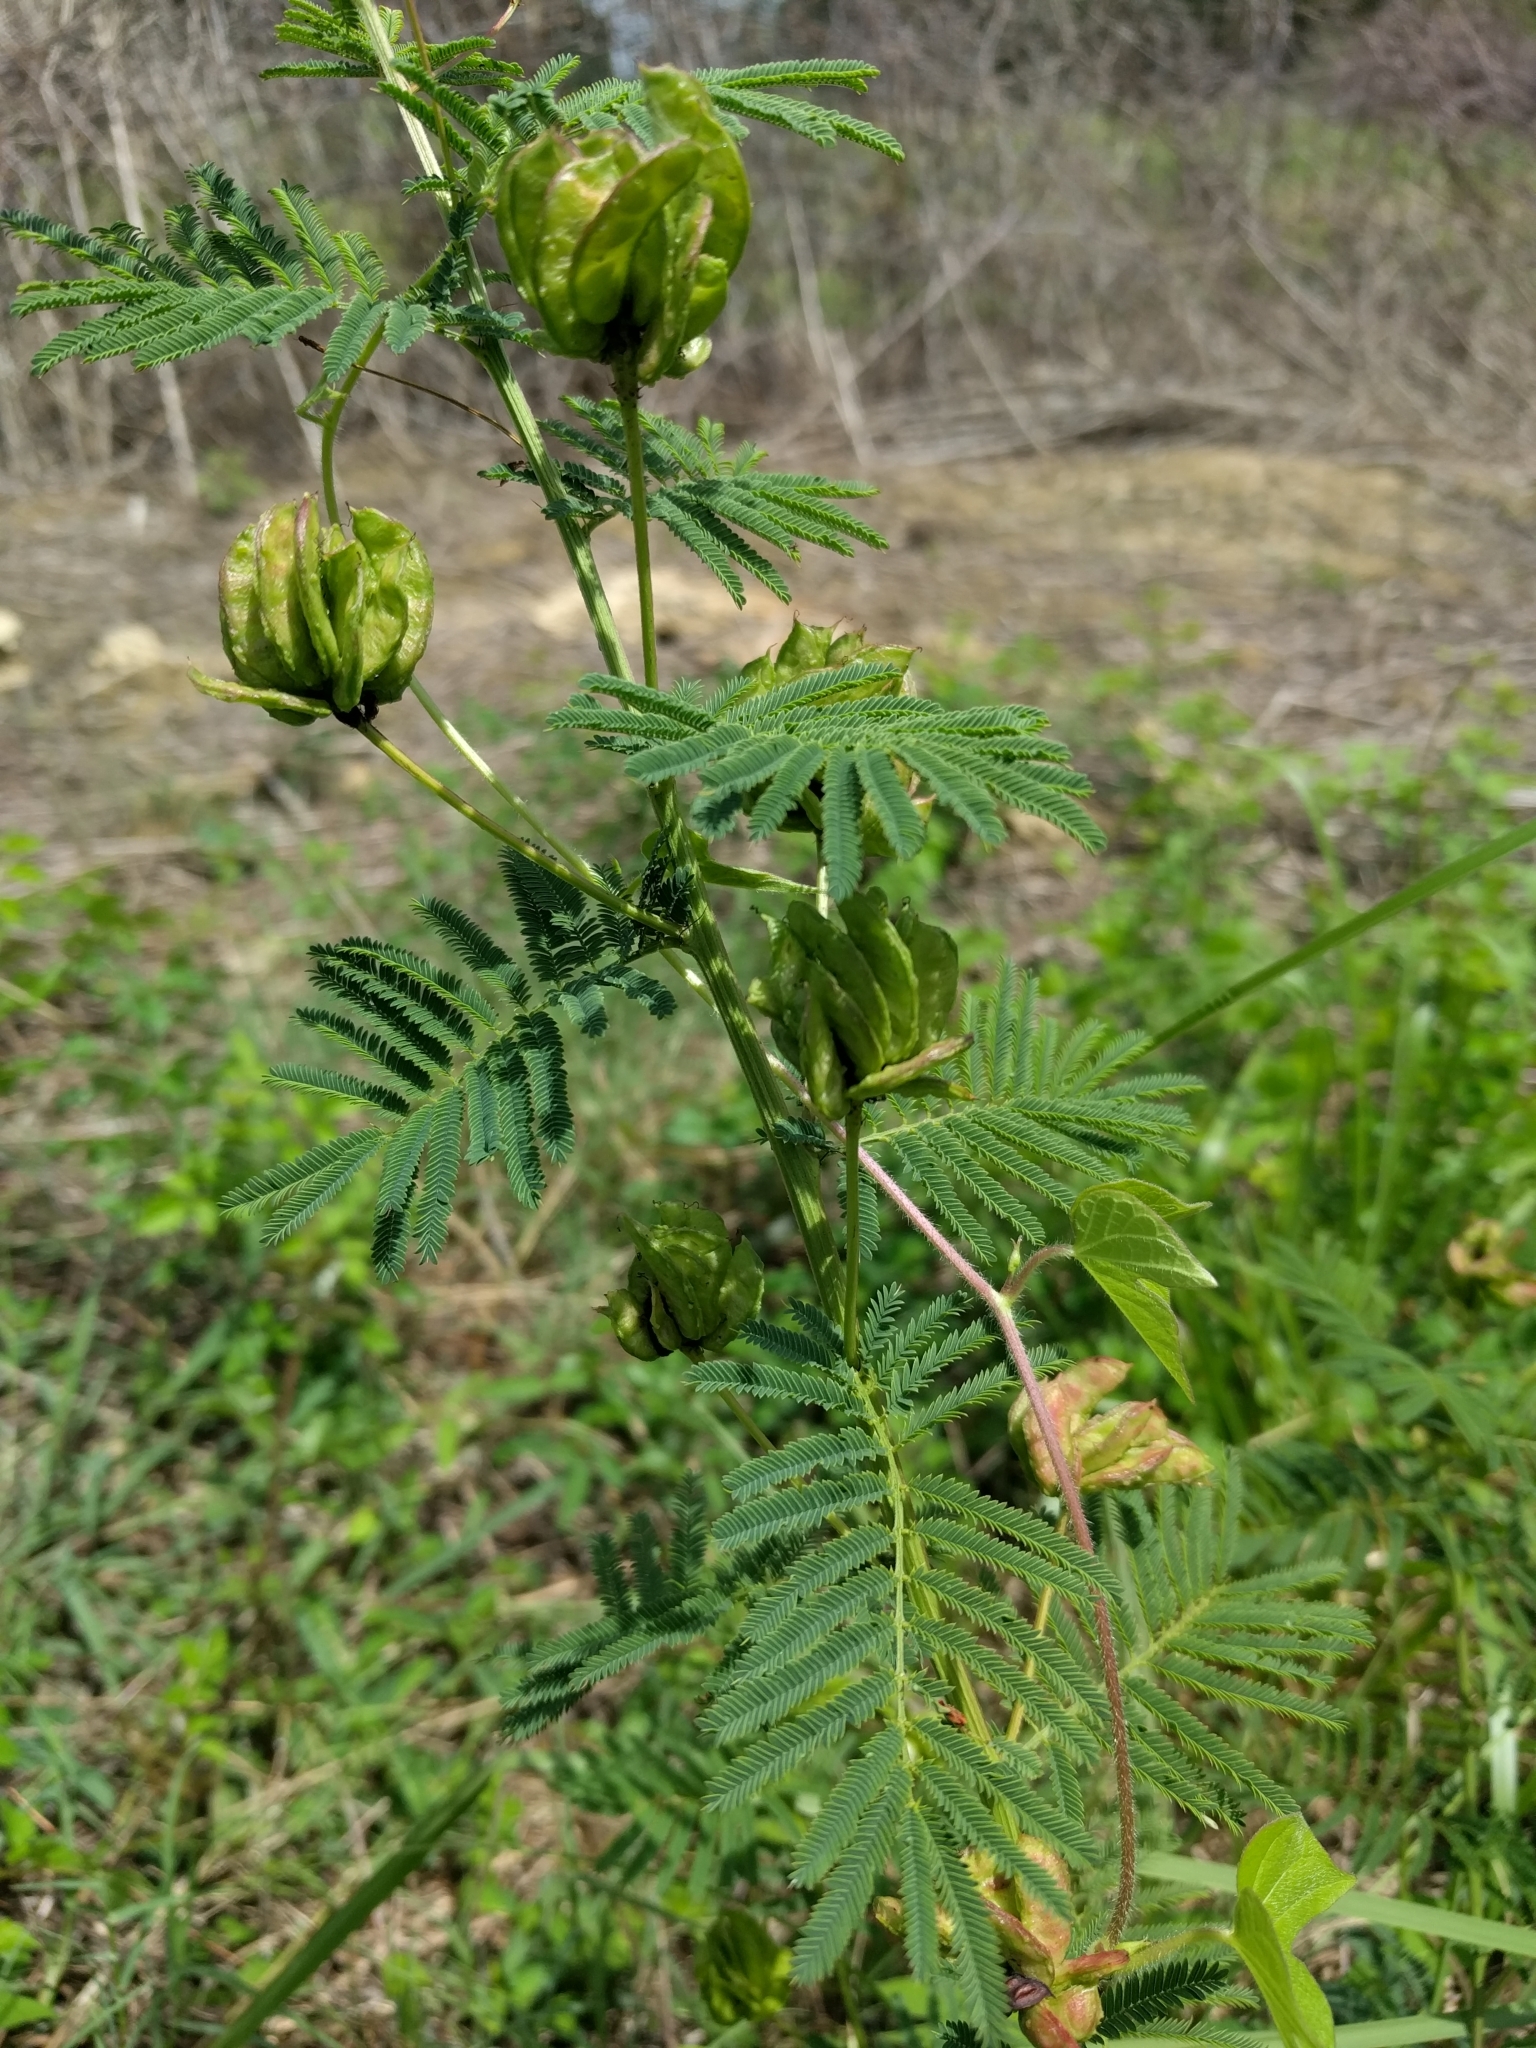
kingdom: Plantae
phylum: Tracheophyta
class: Magnoliopsida
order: Fabales
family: Fabaceae
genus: Desmanthus
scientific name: Desmanthus illinoensis
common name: Illinois bundle-flower
